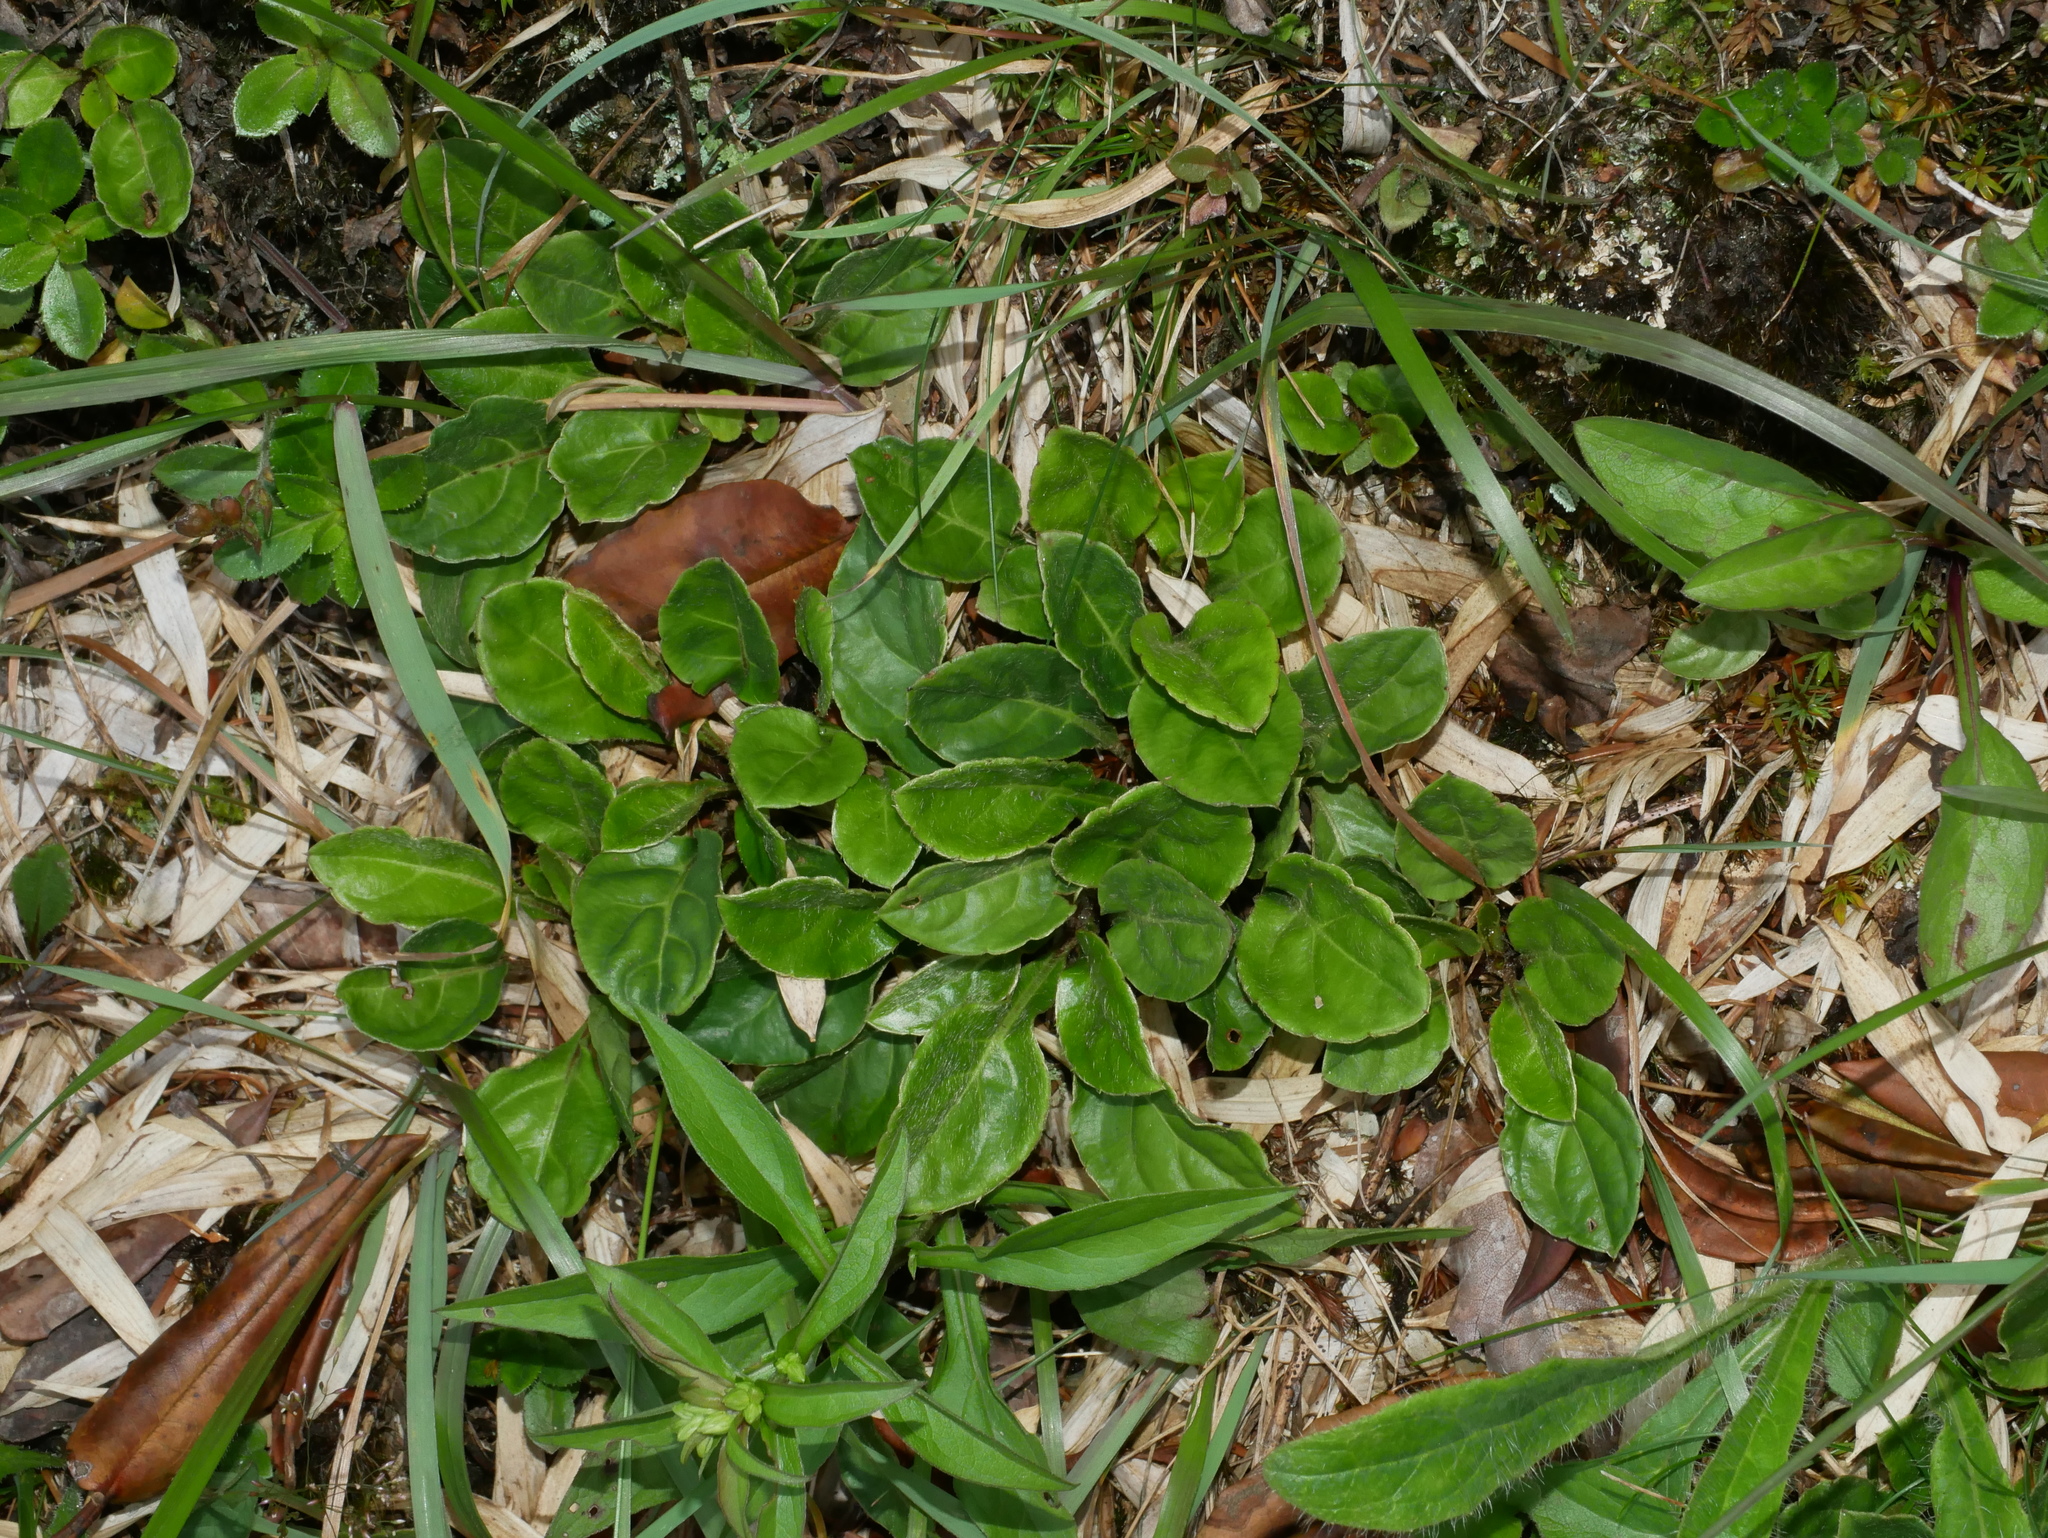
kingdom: Plantae
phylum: Tracheophyta
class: Magnoliopsida
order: Asterales
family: Asteraceae
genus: Ainsliaea
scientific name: Ainsliaea henryi
